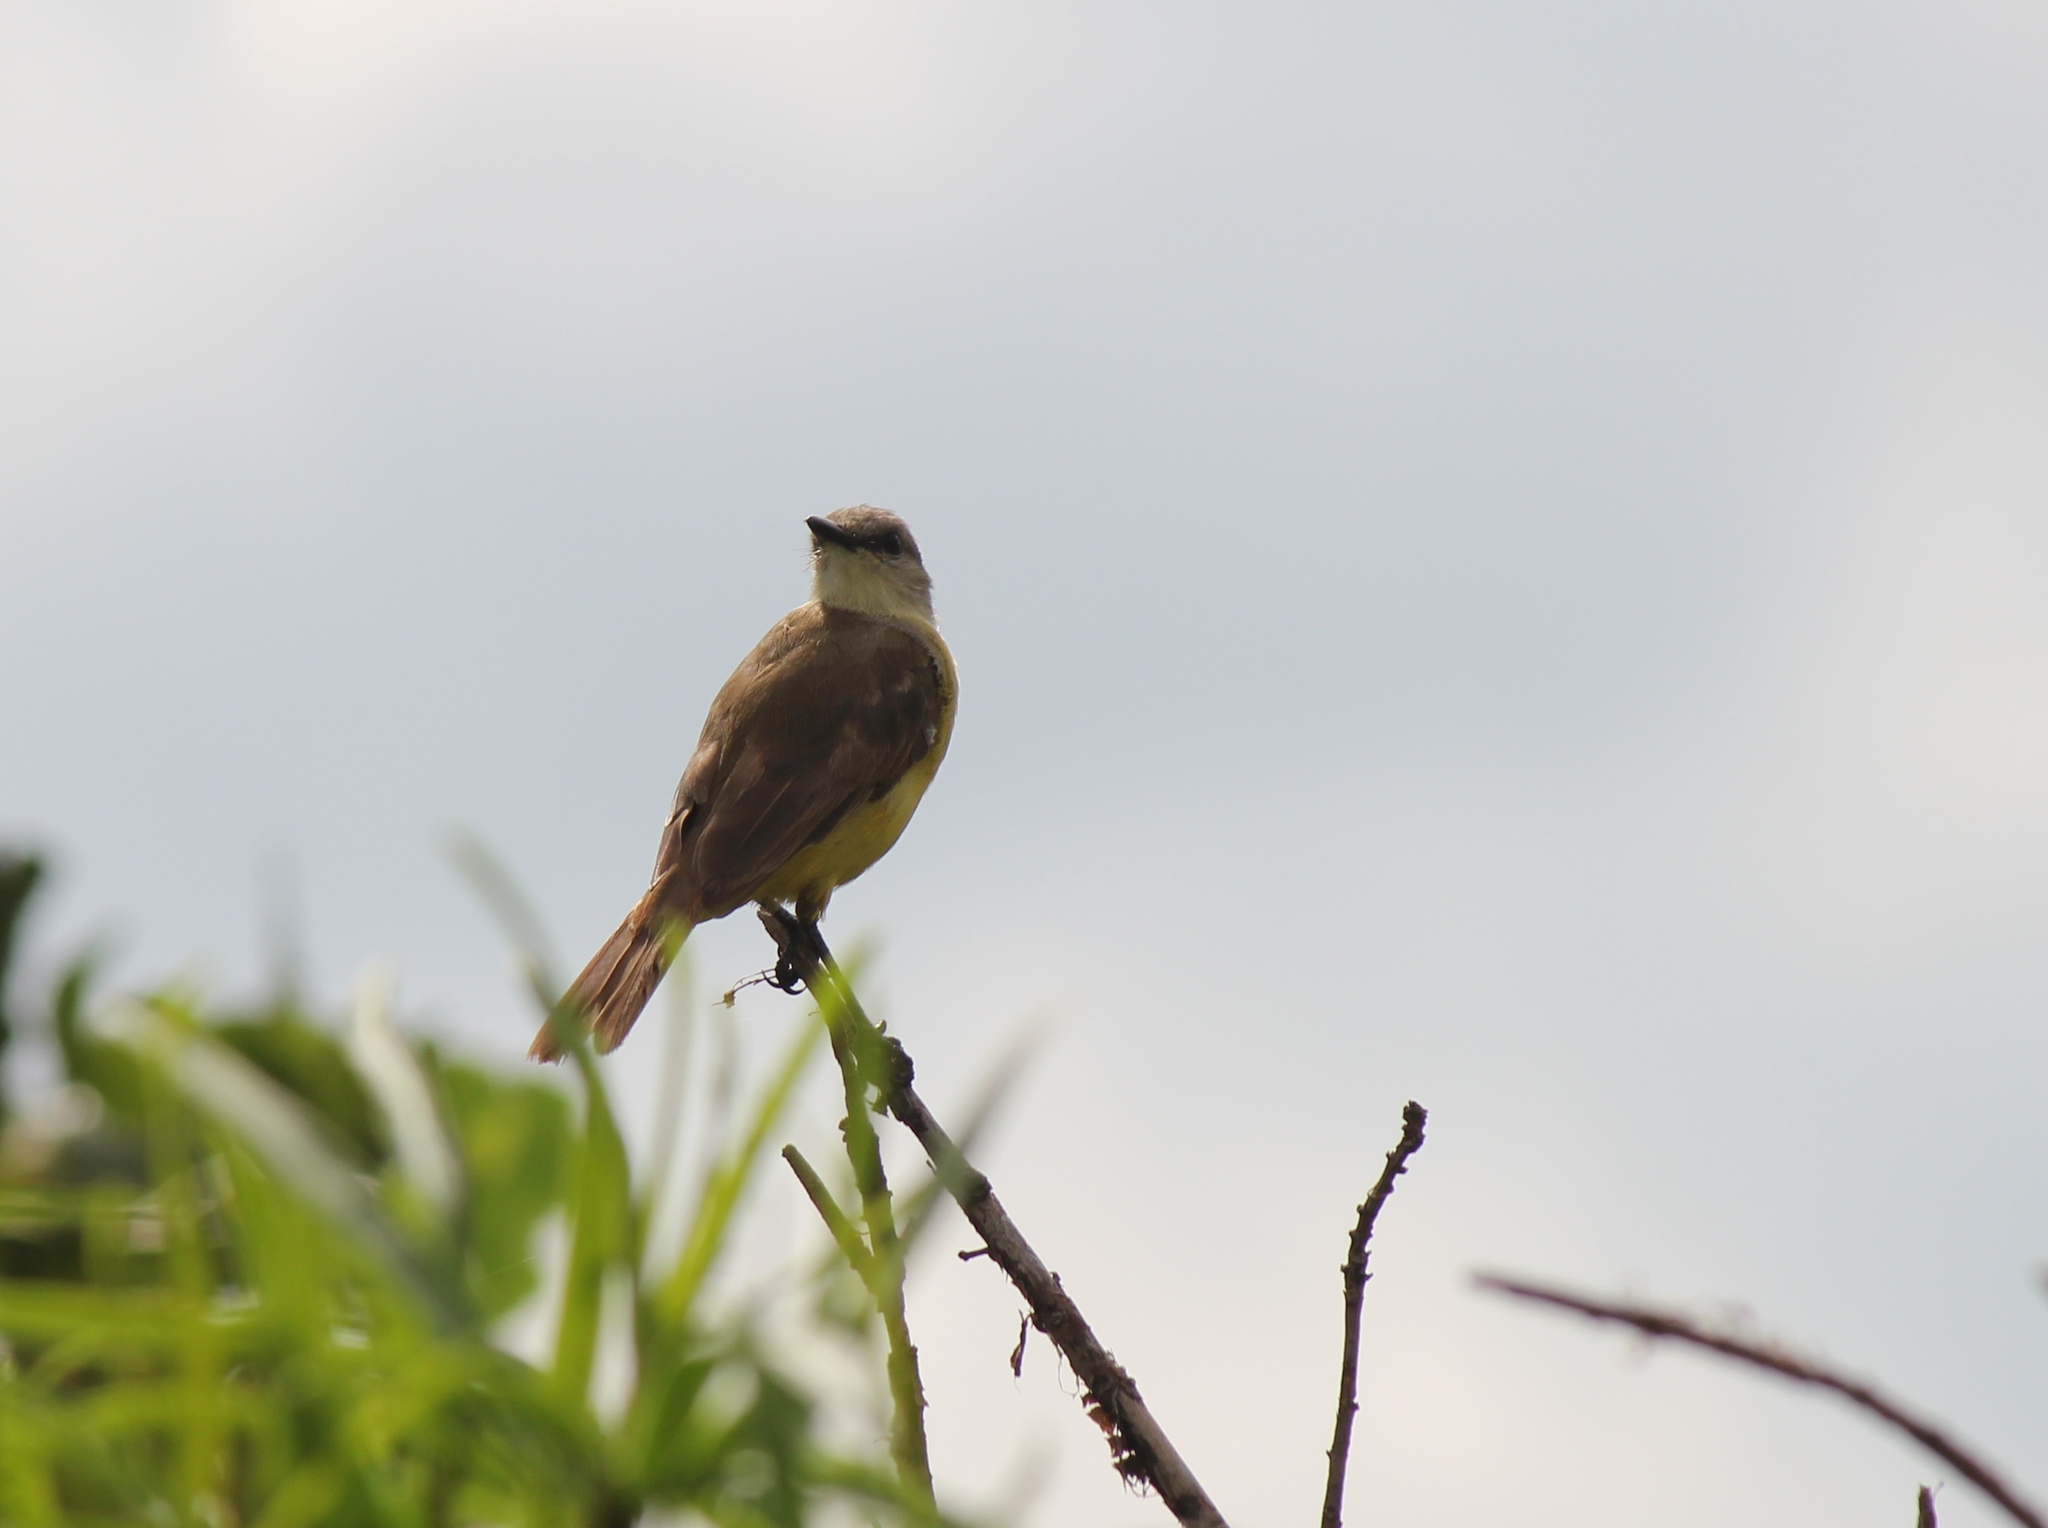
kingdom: Animalia
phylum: Chordata
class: Aves
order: Passeriformes
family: Tyrannidae
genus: Machetornis
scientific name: Machetornis rixosa
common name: Cattle tyrant
